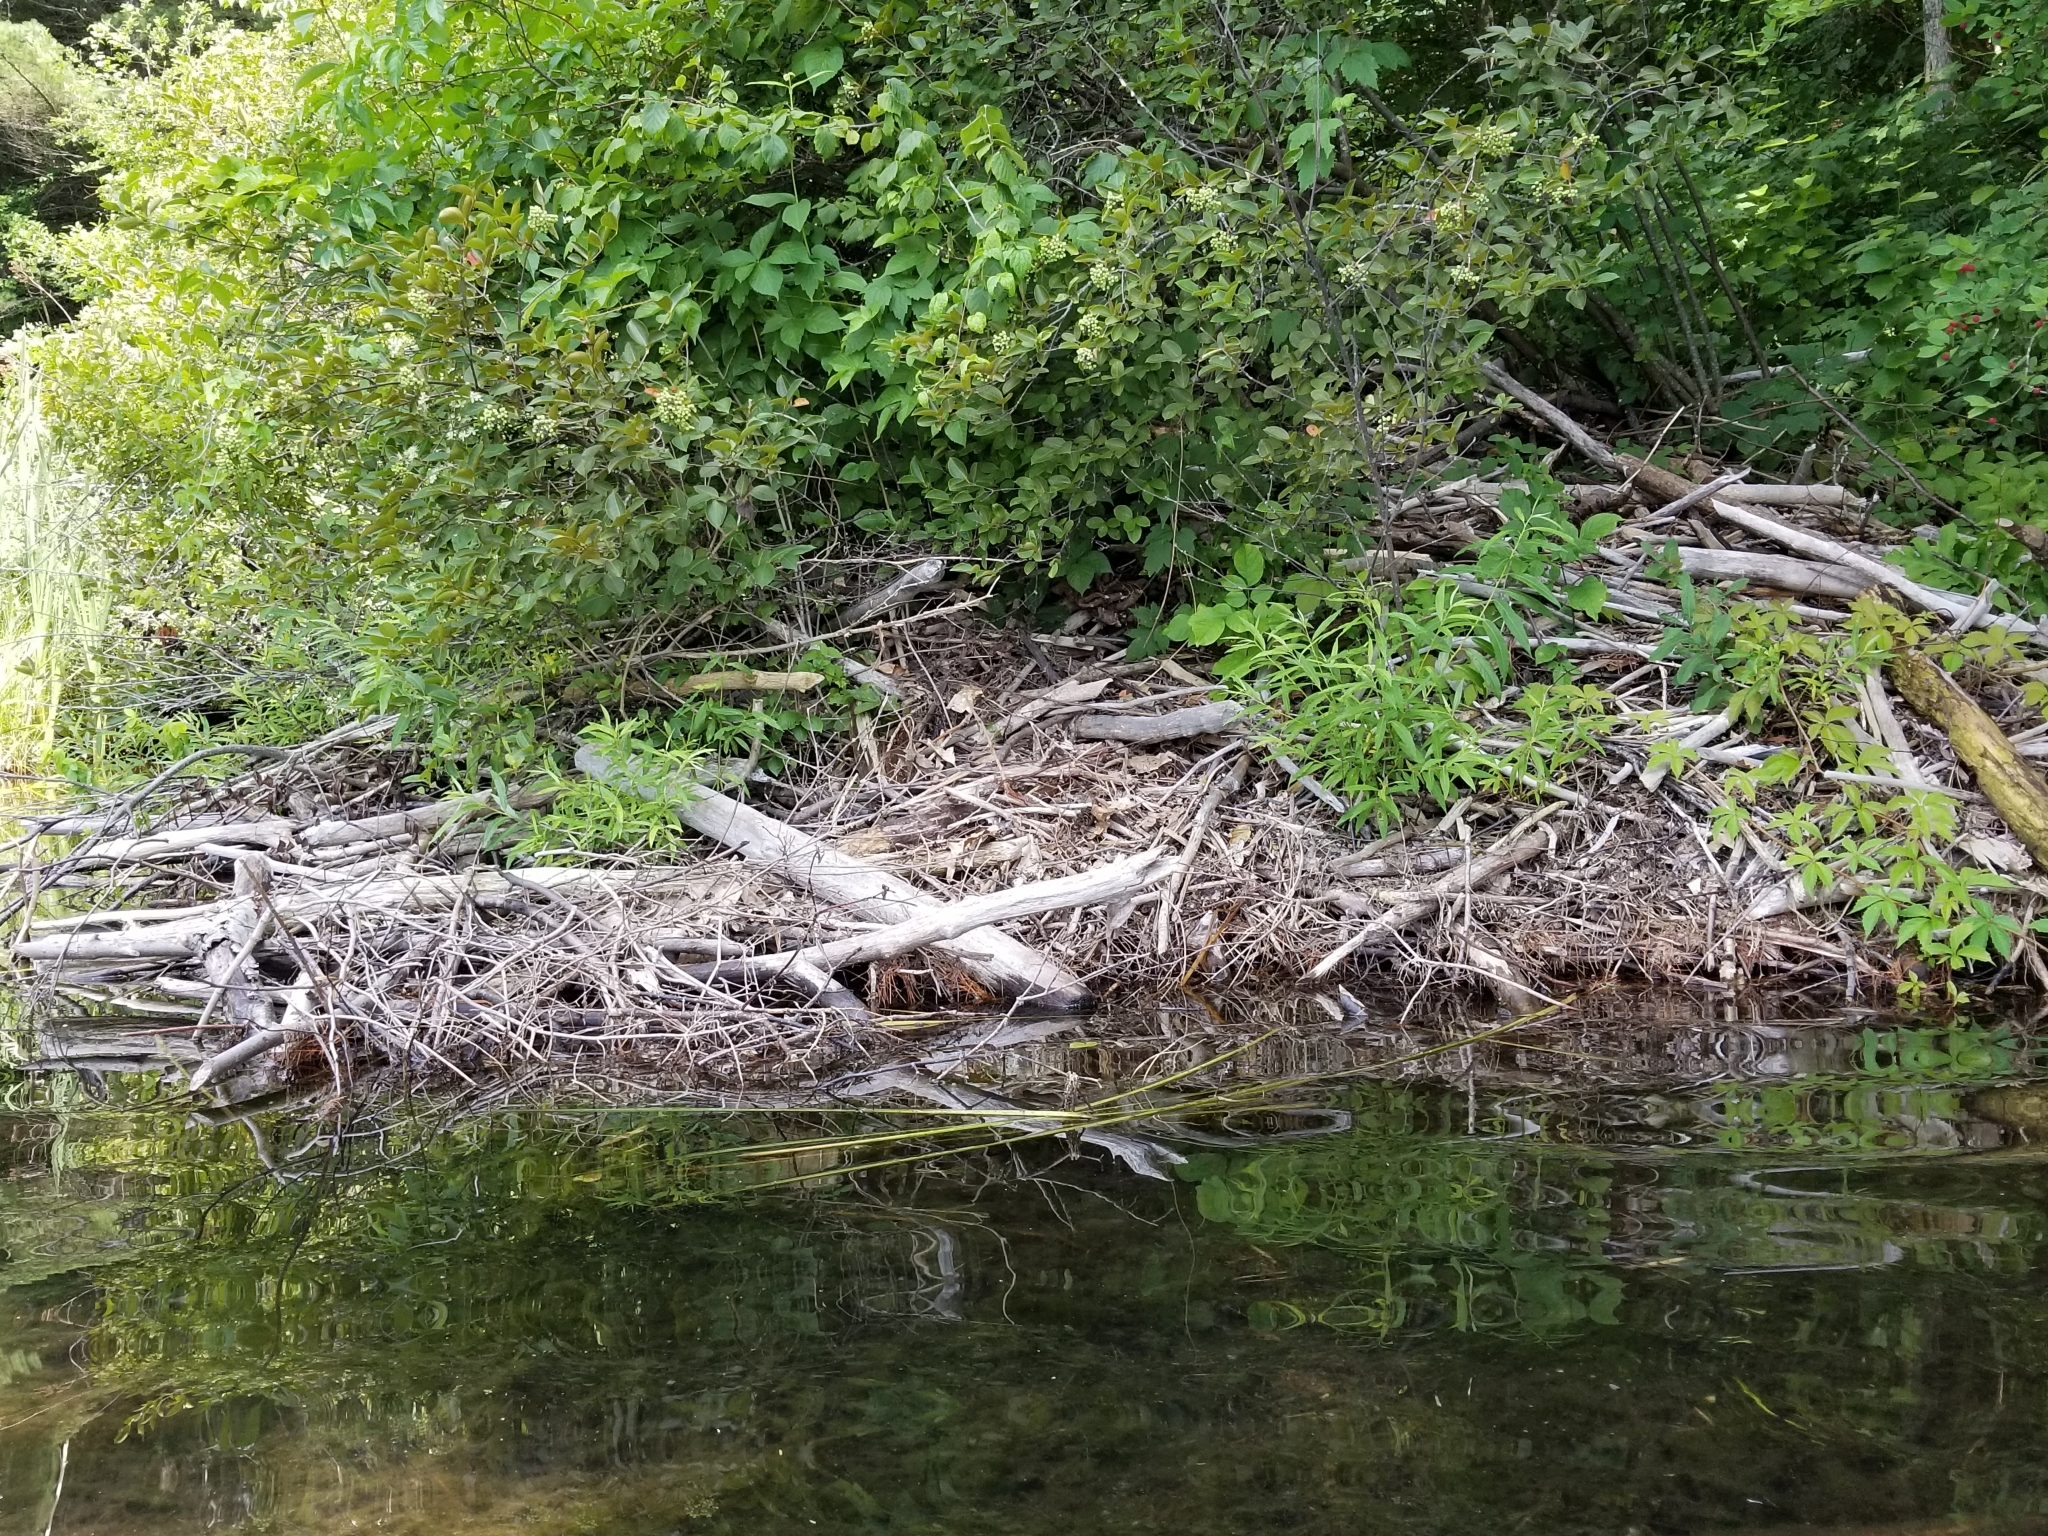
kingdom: Animalia
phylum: Chordata
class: Mammalia
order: Rodentia
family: Castoridae
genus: Castor
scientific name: Castor canadensis
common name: American beaver
